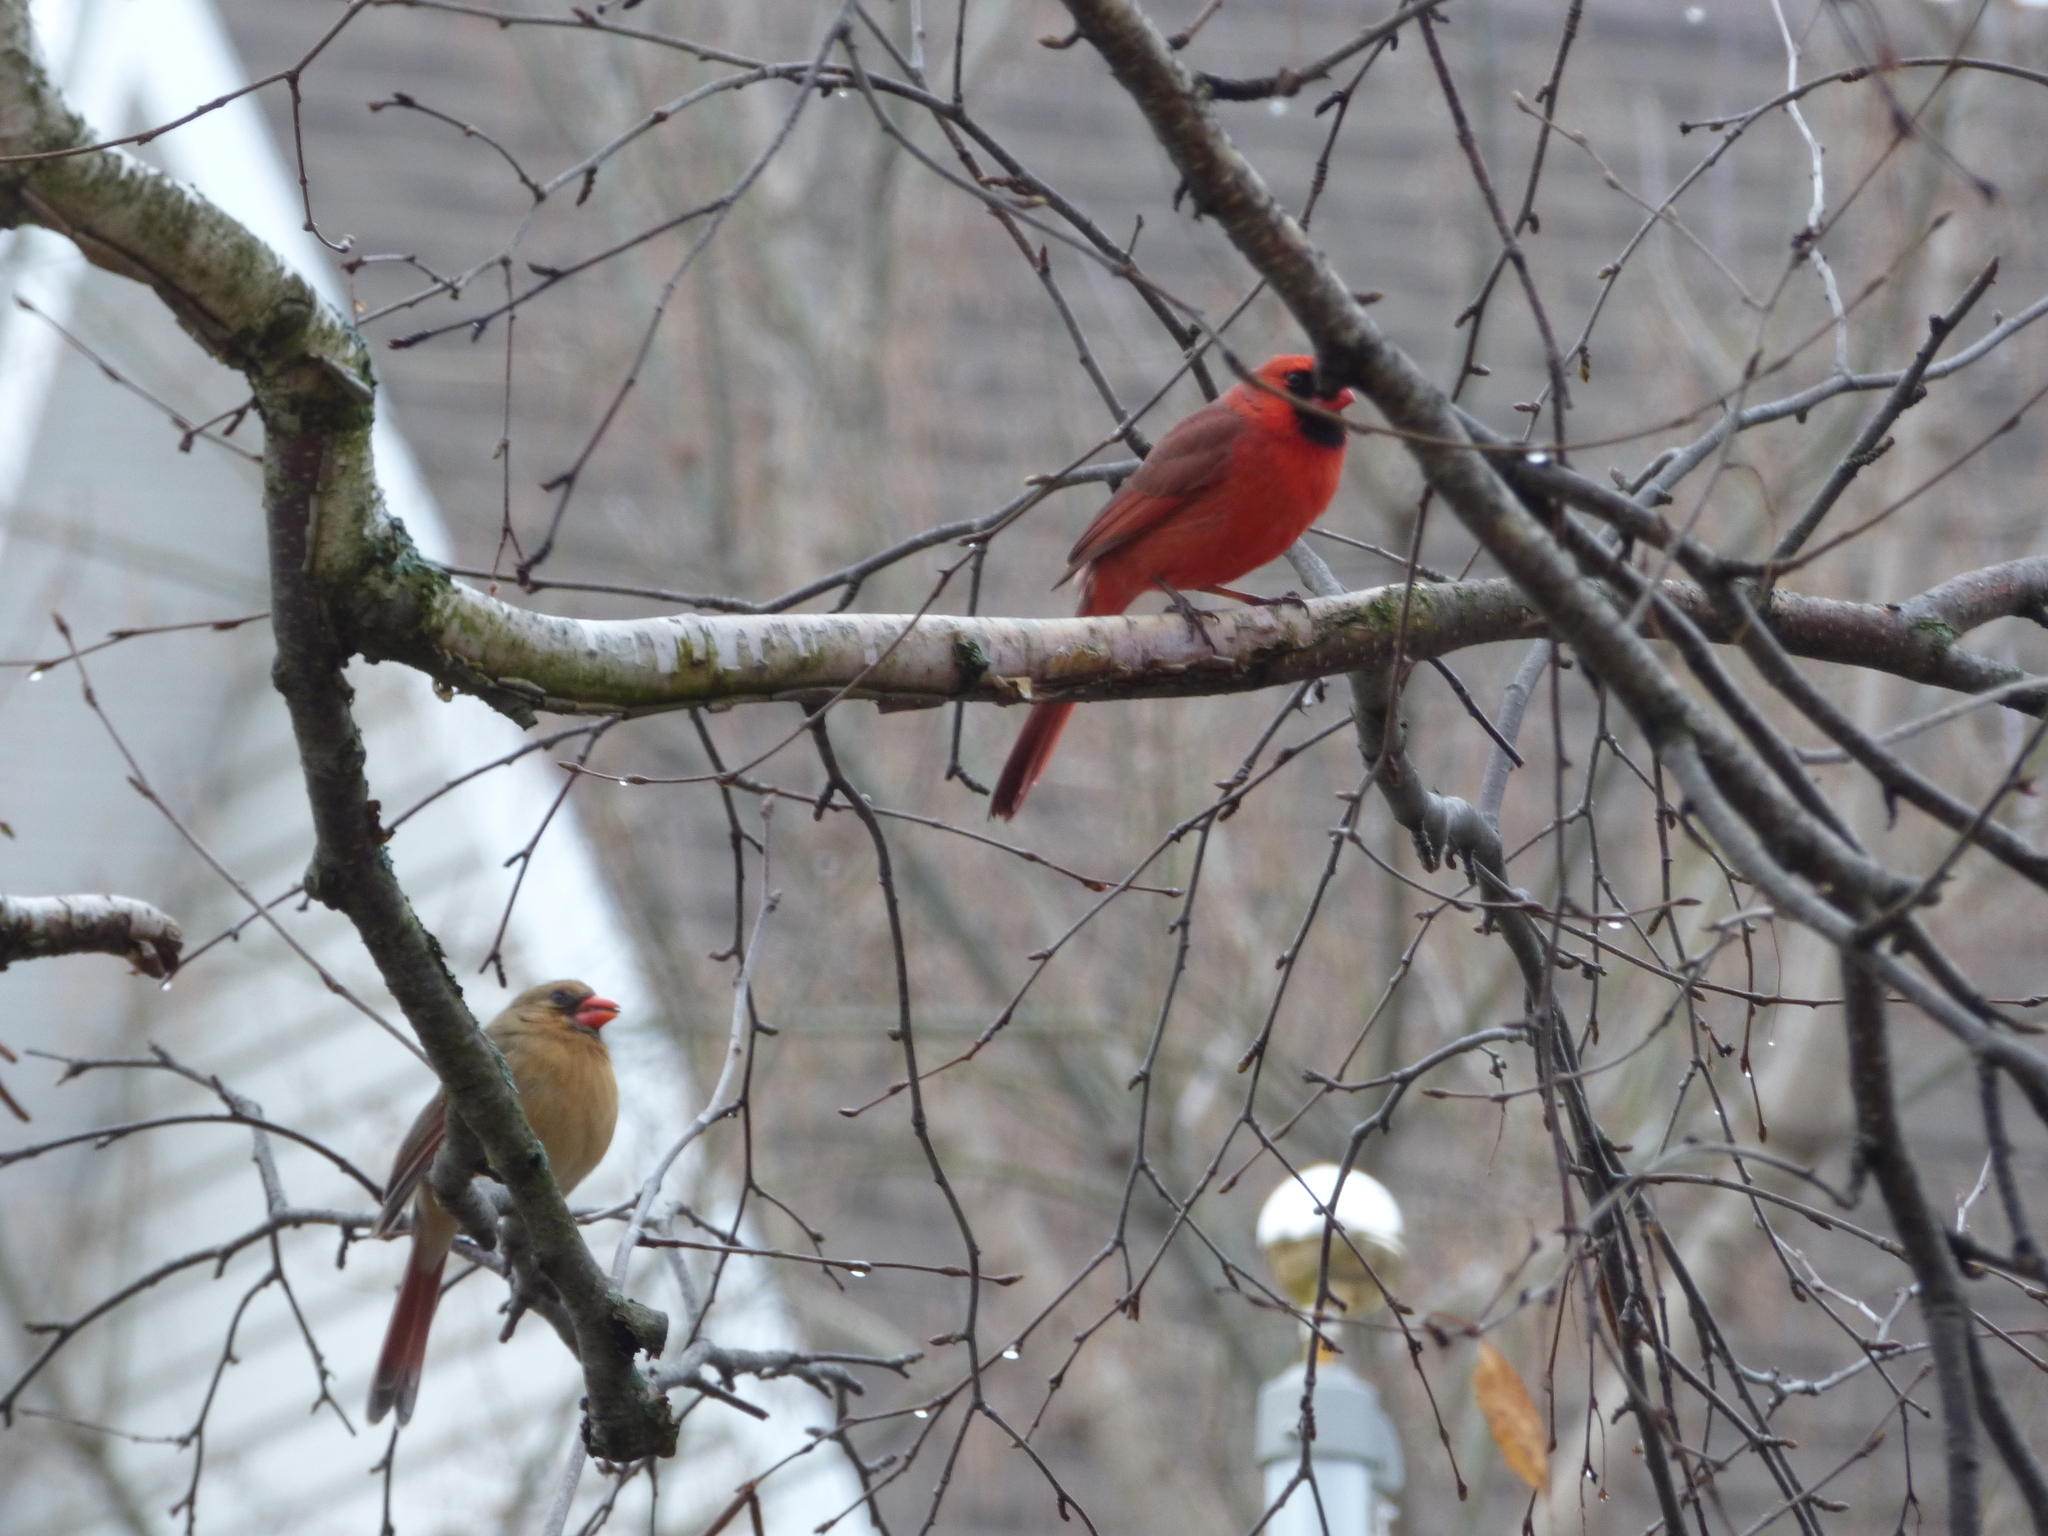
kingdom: Animalia
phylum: Chordata
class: Aves
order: Passeriformes
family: Cardinalidae
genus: Cardinalis
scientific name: Cardinalis cardinalis
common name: Northern cardinal
